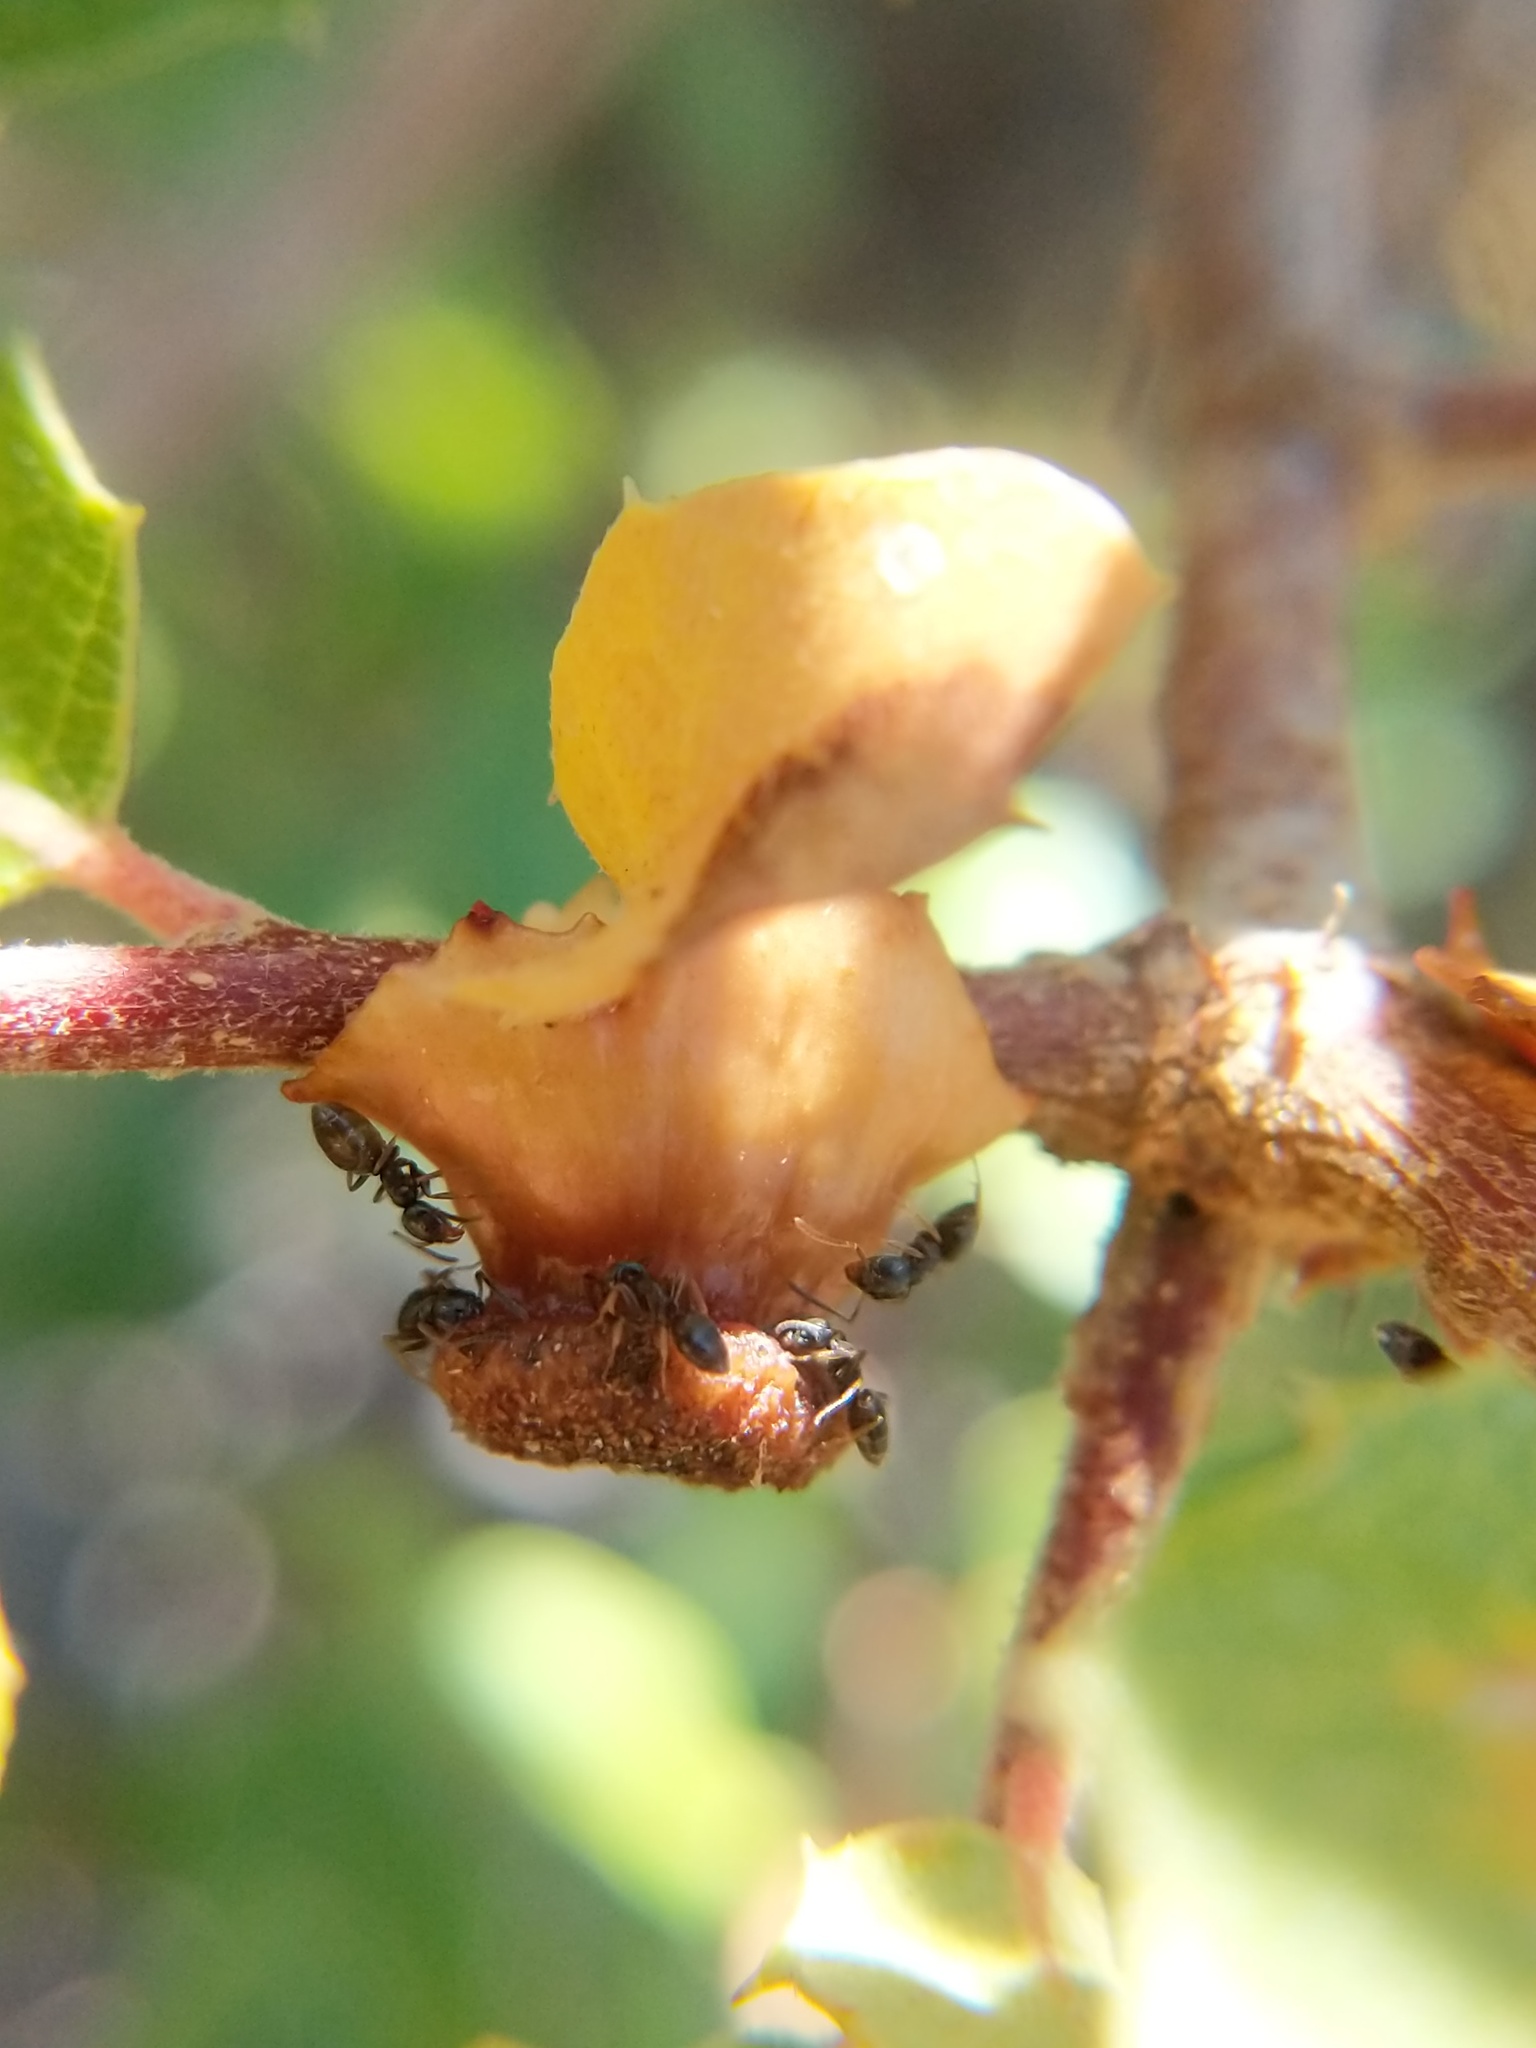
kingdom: Animalia
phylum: Arthropoda
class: Insecta
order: Hymenoptera
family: Cynipidae
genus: Disholcaspis
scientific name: Disholcaspis prehensa
